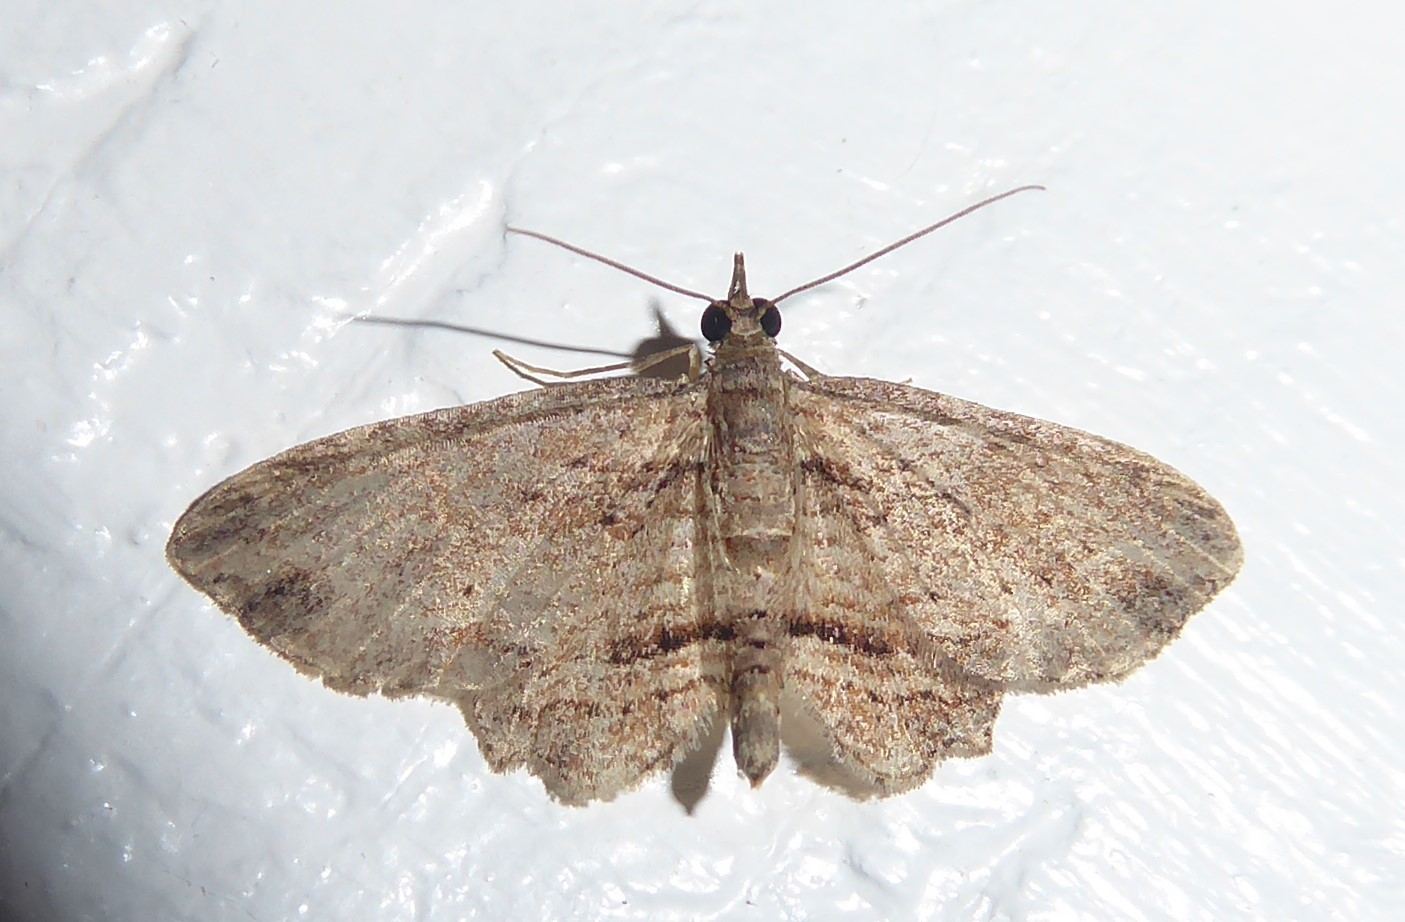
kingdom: Animalia
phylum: Arthropoda
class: Insecta
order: Lepidoptera
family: Geometridae
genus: Chloroclystis
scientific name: Chloroclystis filata
